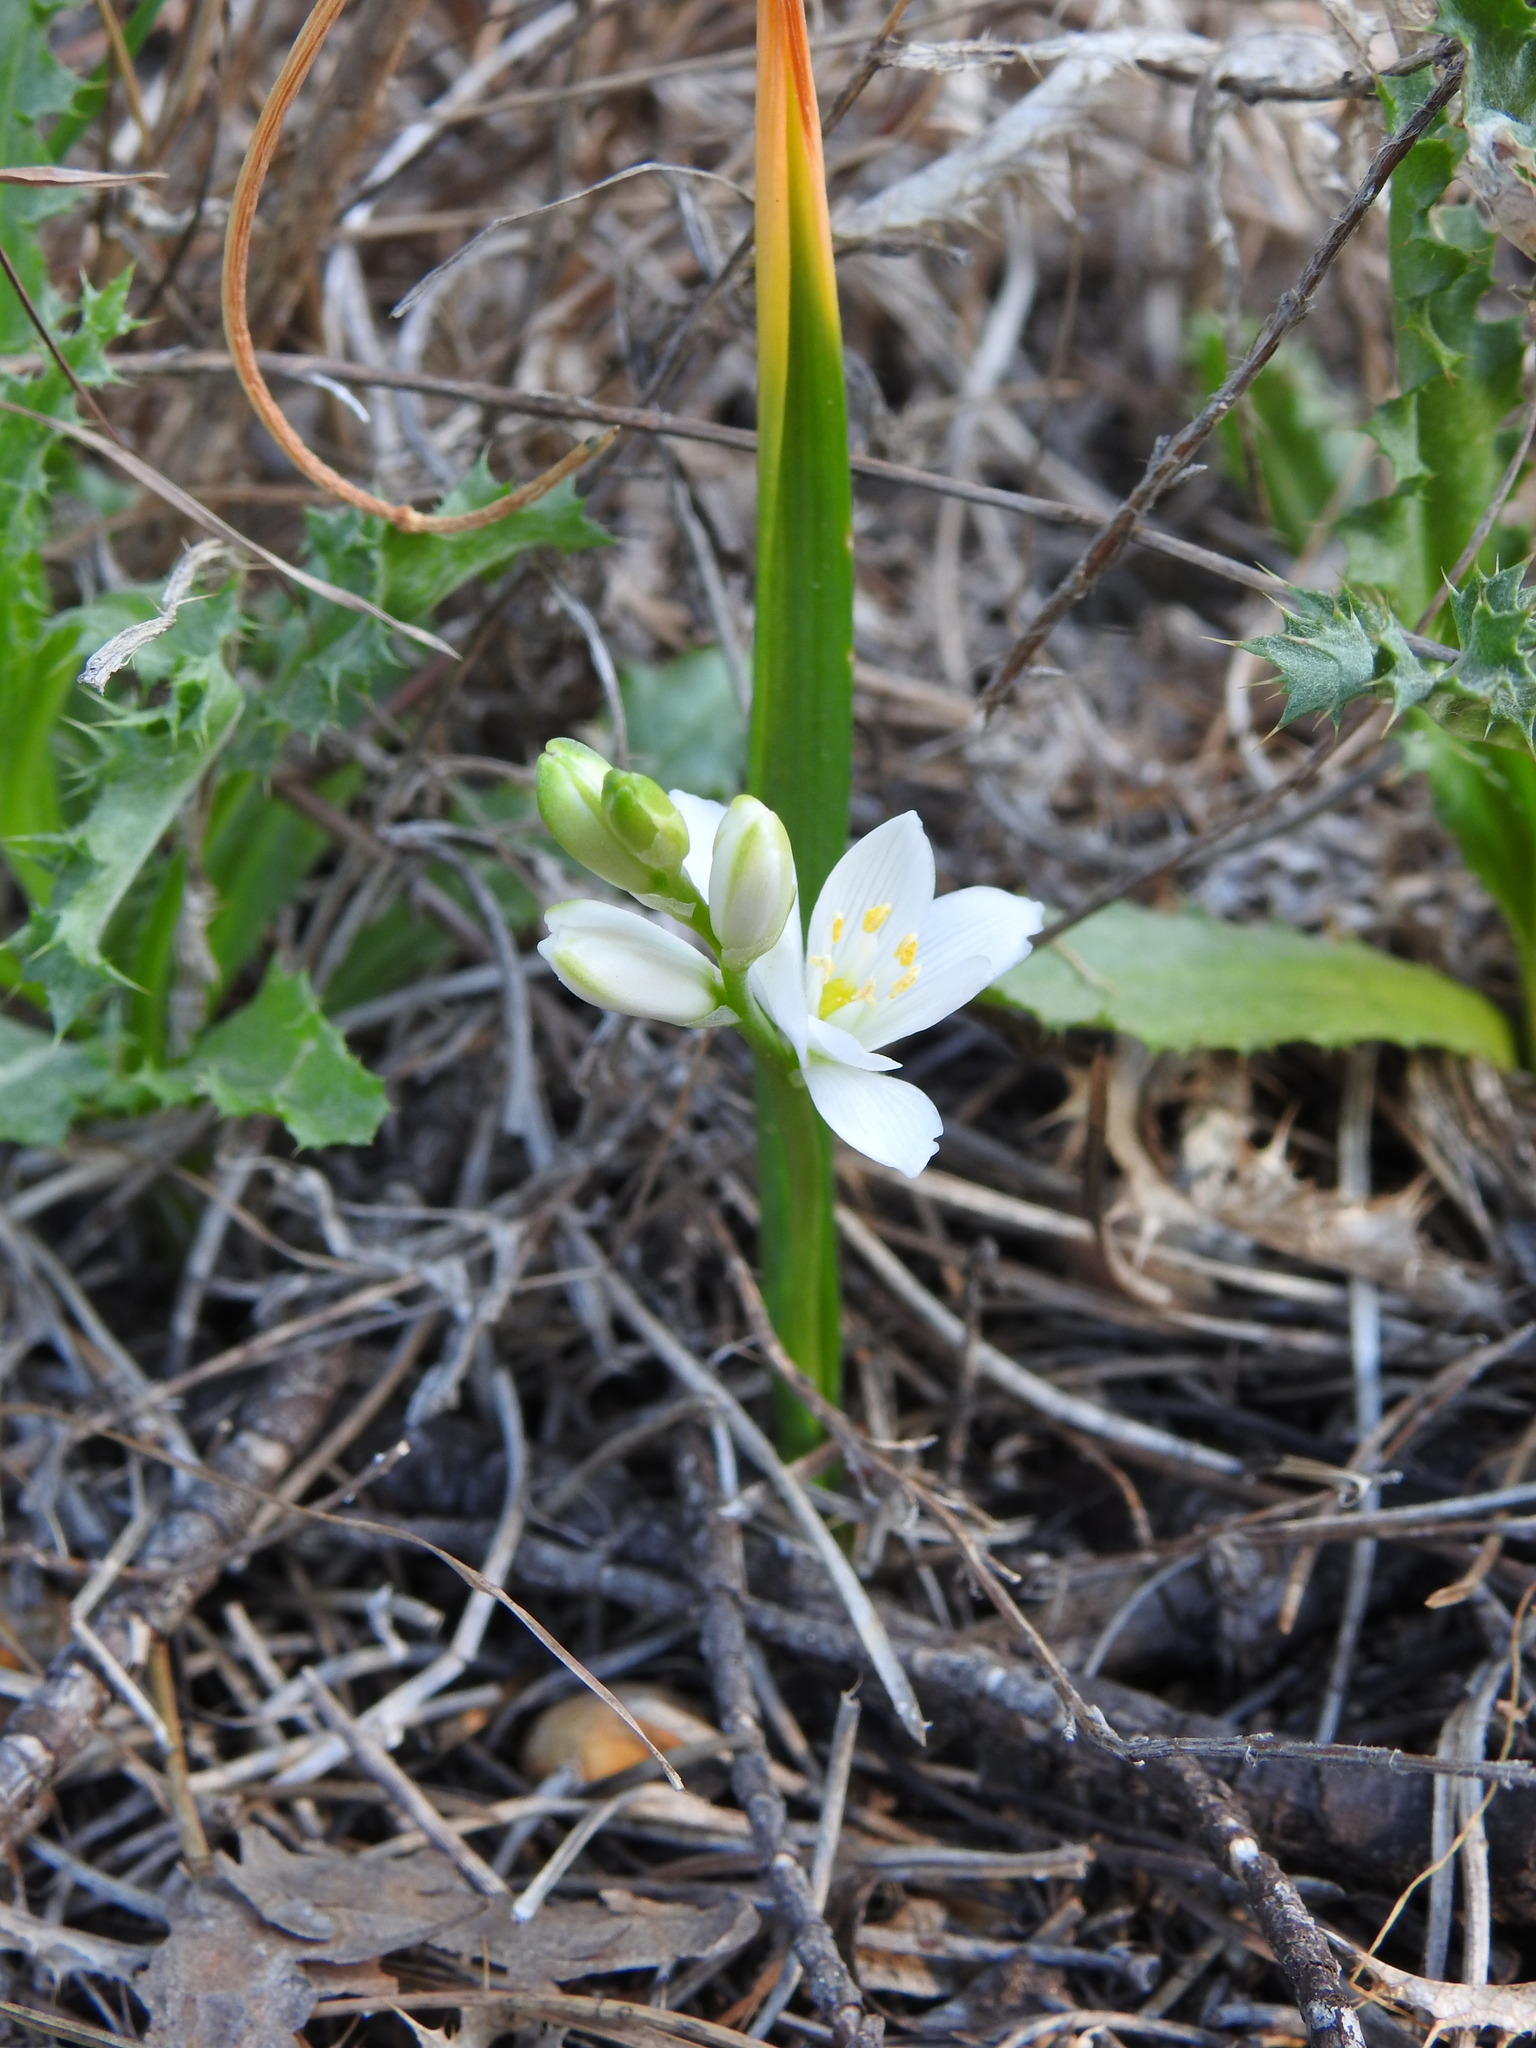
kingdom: Plantae
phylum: Tracheophyta
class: Liliopsida
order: Asparagales
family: Asparagaceae
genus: Ornithogalum
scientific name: Ornithogalum broteroi
